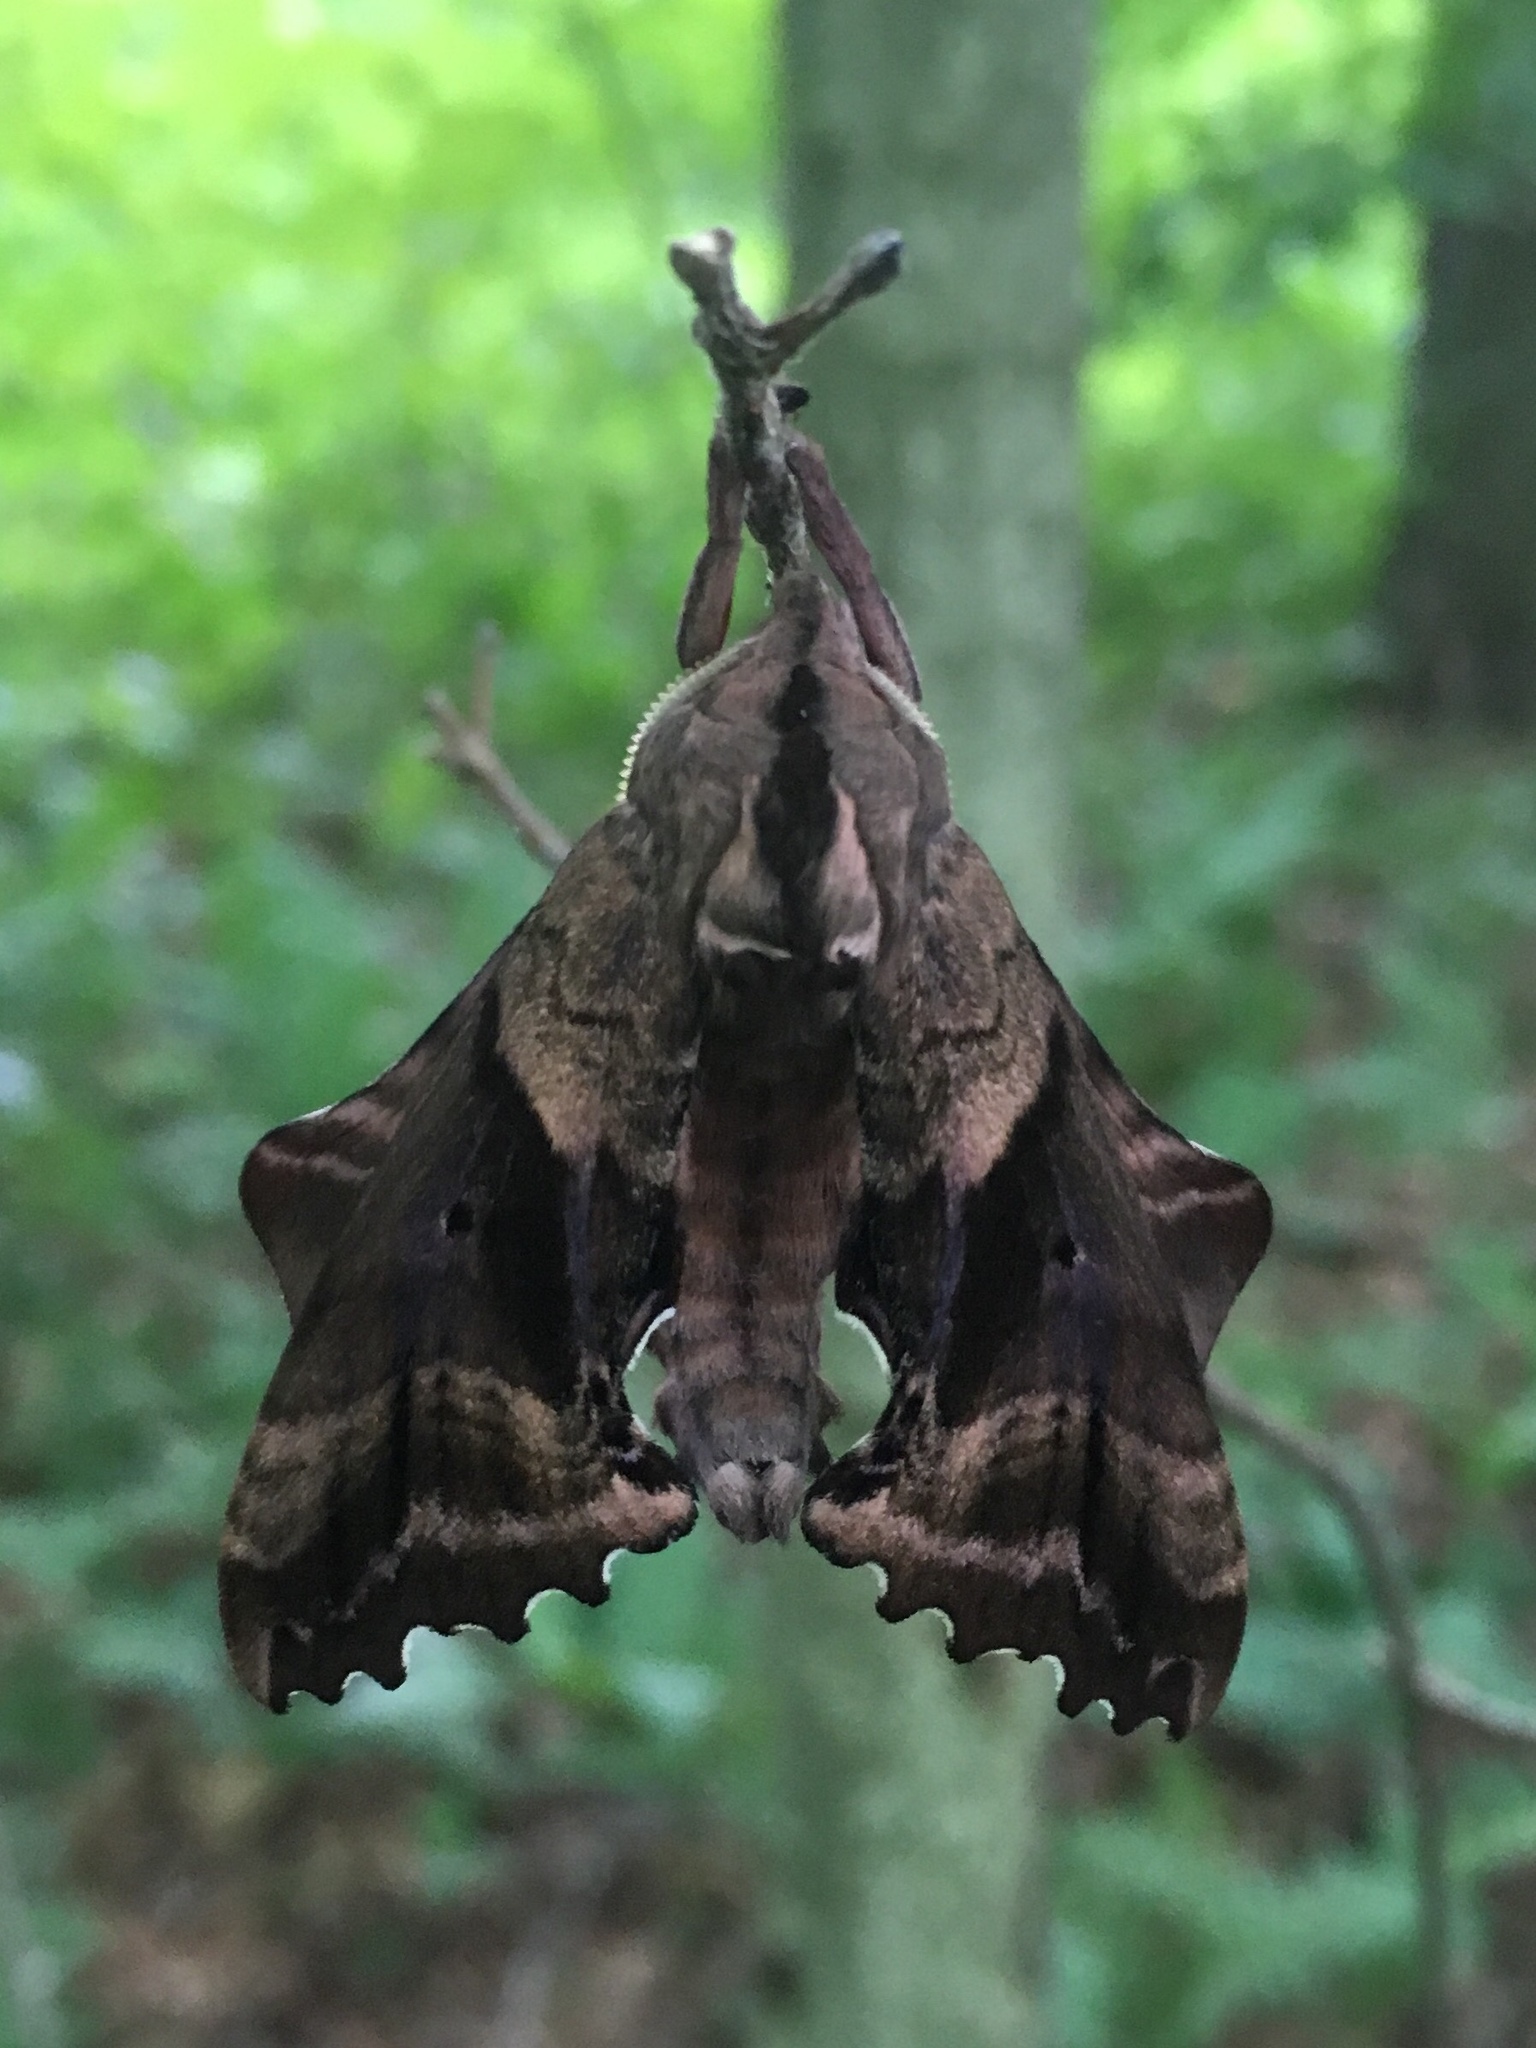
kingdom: Animalia
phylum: Arthropoda
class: Insecta
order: Lepidoptera
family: Sphingidae
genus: Paonias
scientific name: Paonias excaecata
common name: Blind-eyed sphinx
